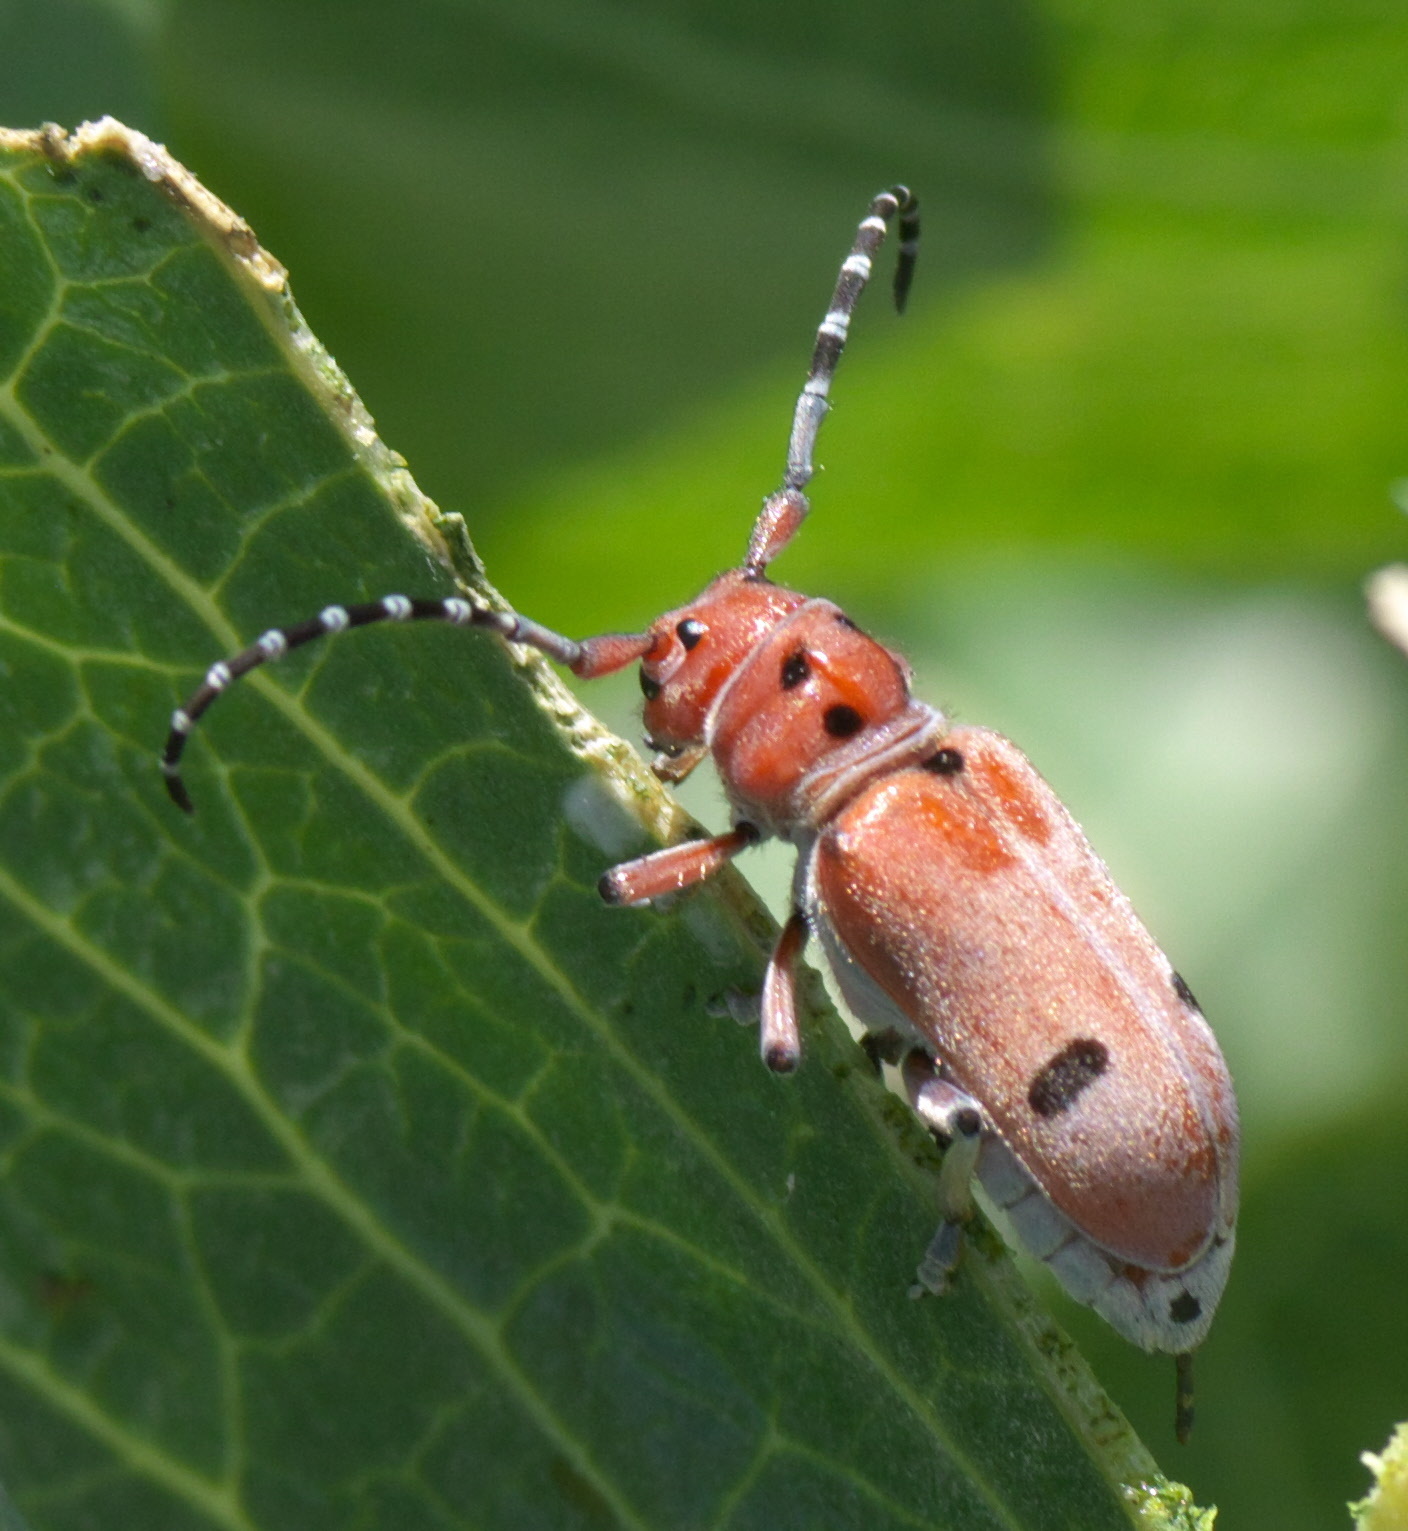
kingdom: Animalia
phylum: Arthropoda
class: Insecta
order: Coleoptera
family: Cerambycidae
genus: Tetraopes
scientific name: Tetraopes femoratus
